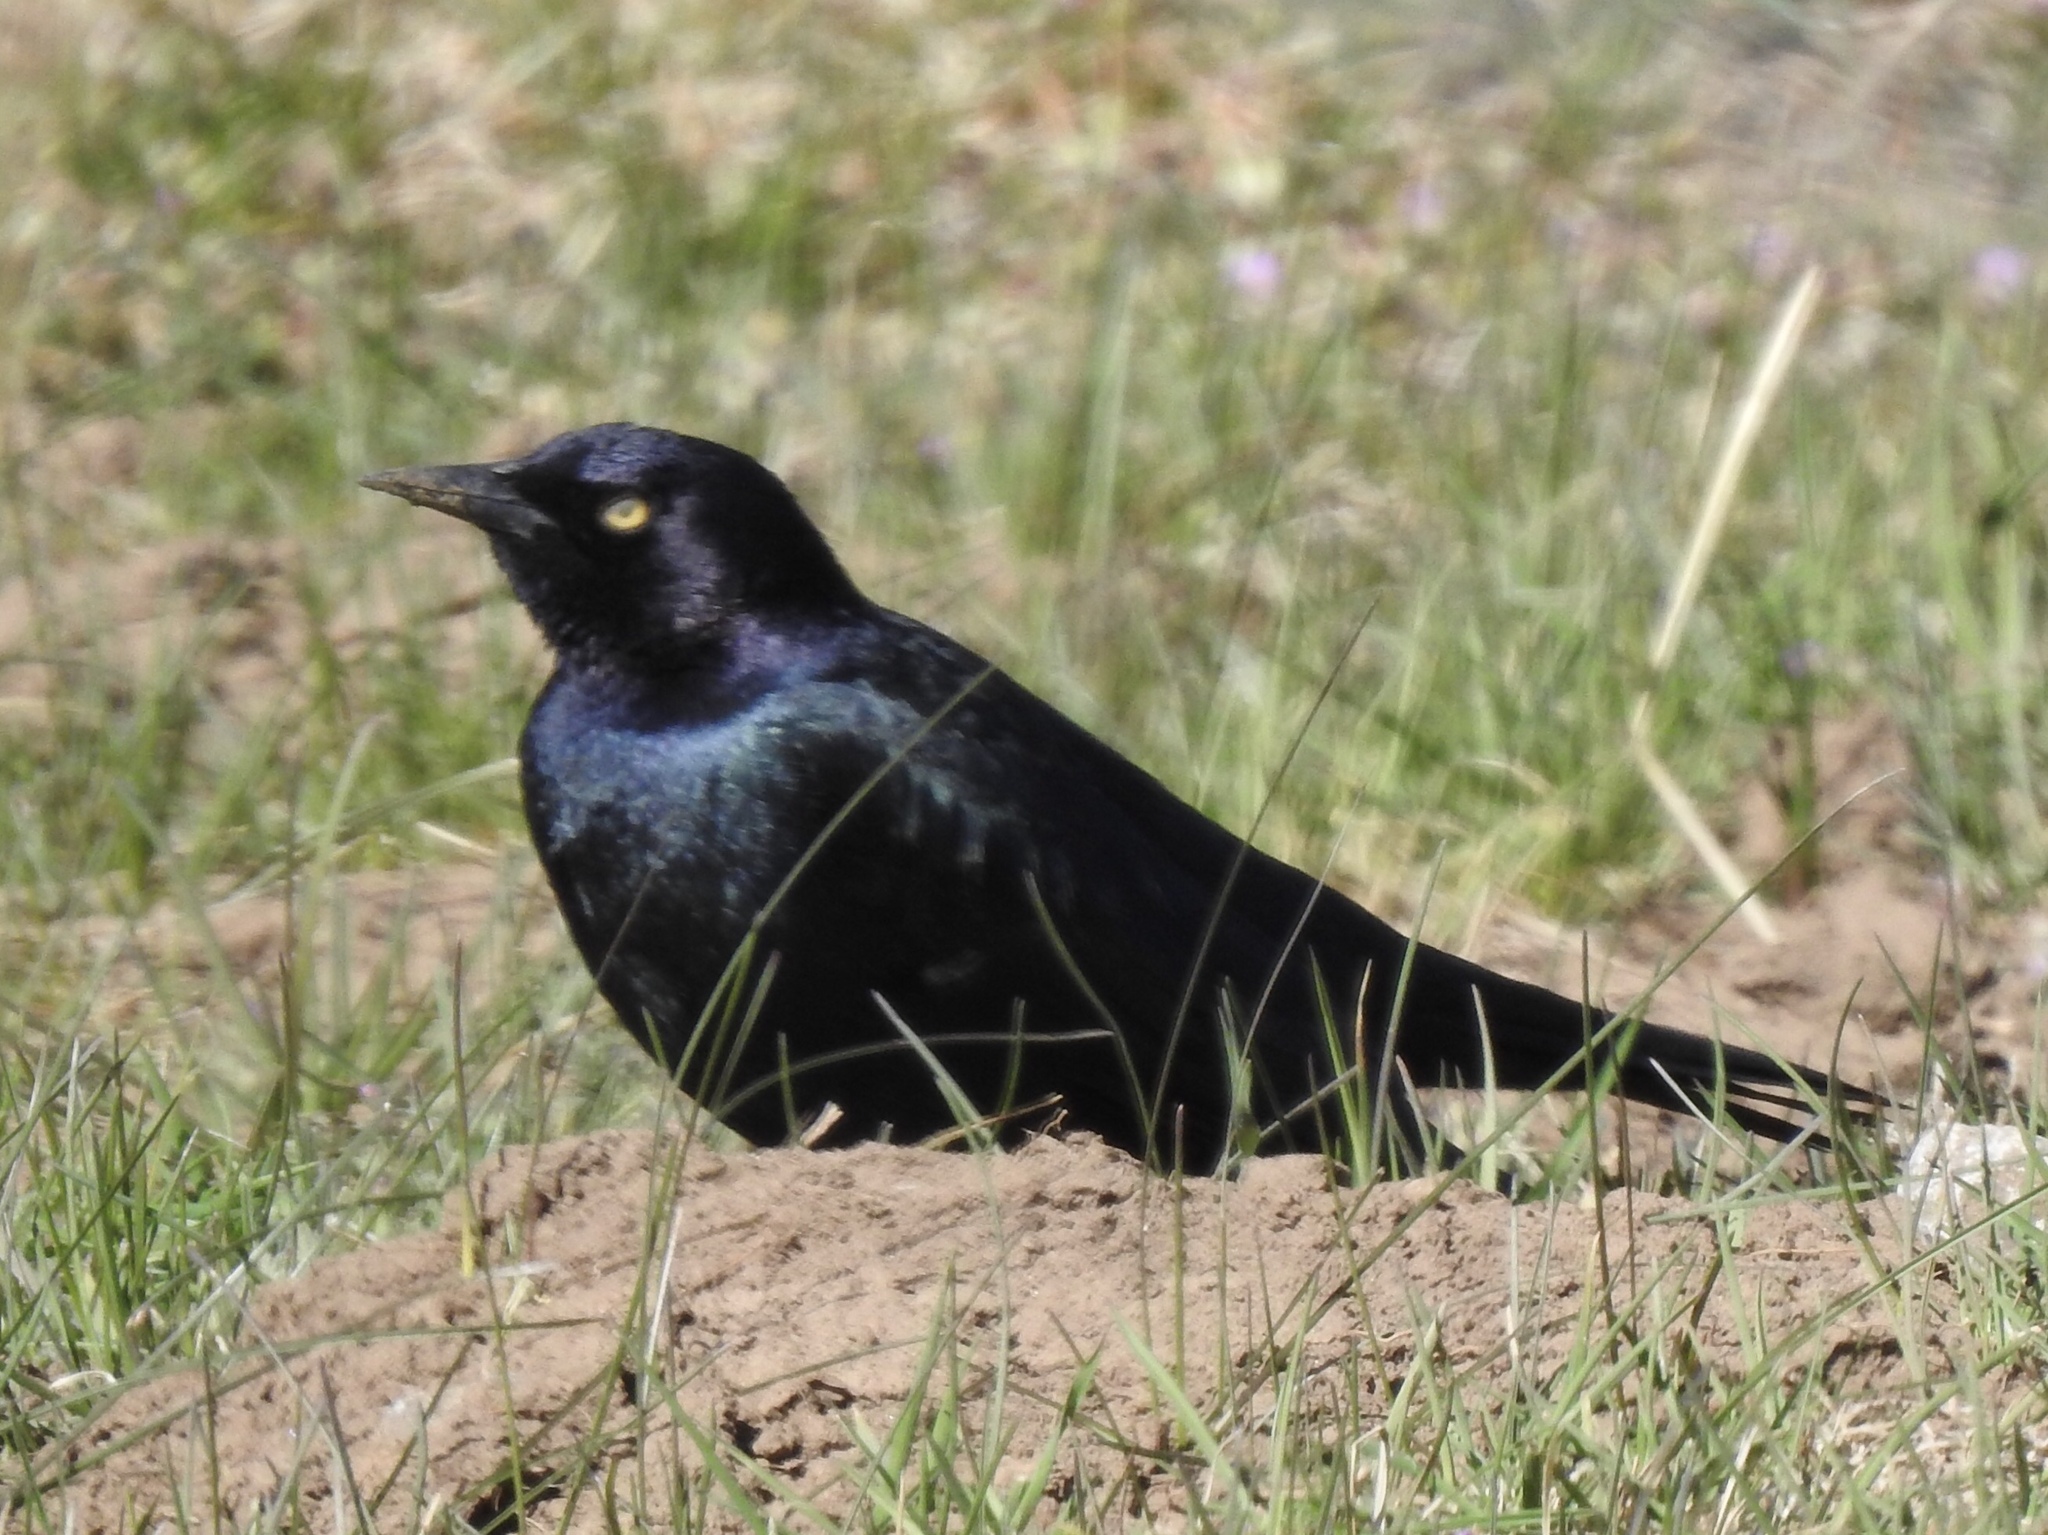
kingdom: Animalia
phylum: Chordata
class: Aves
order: Passeriformes
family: Icteridae
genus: Euphagus
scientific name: Euphagus cyanocephalus
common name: Brewer's blackbird
